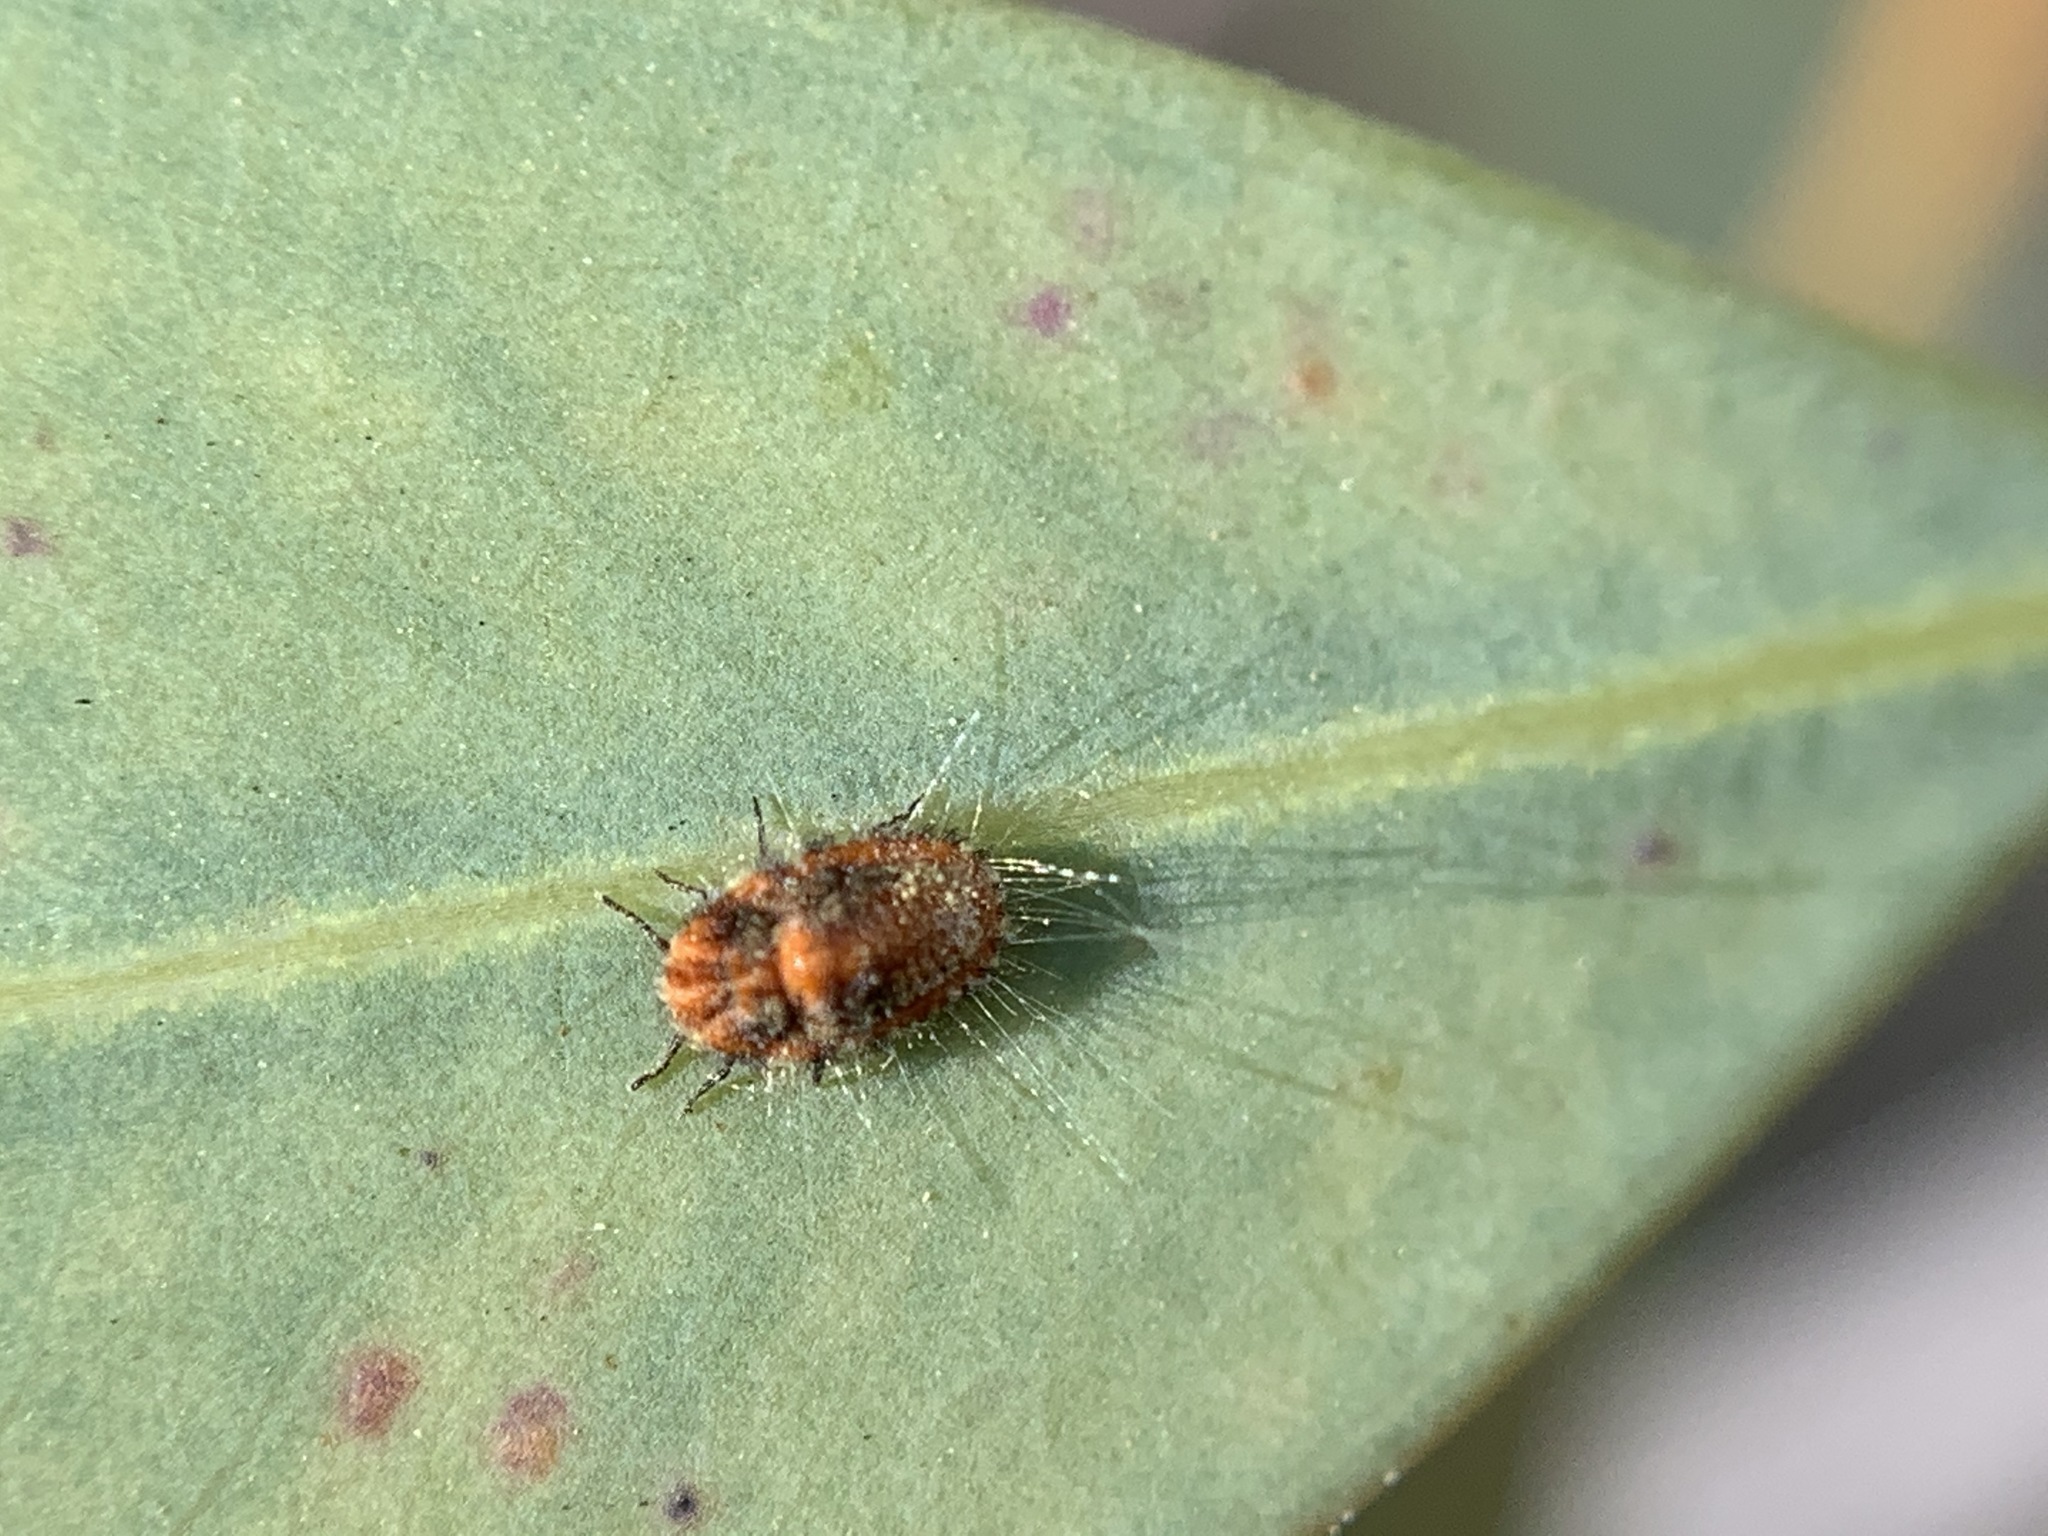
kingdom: Animalia
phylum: Arthropoda
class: Insecta
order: Hemiptera
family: Margarodidae
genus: Icerya
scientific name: Icerya purchasi
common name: Cottony cushion scale
